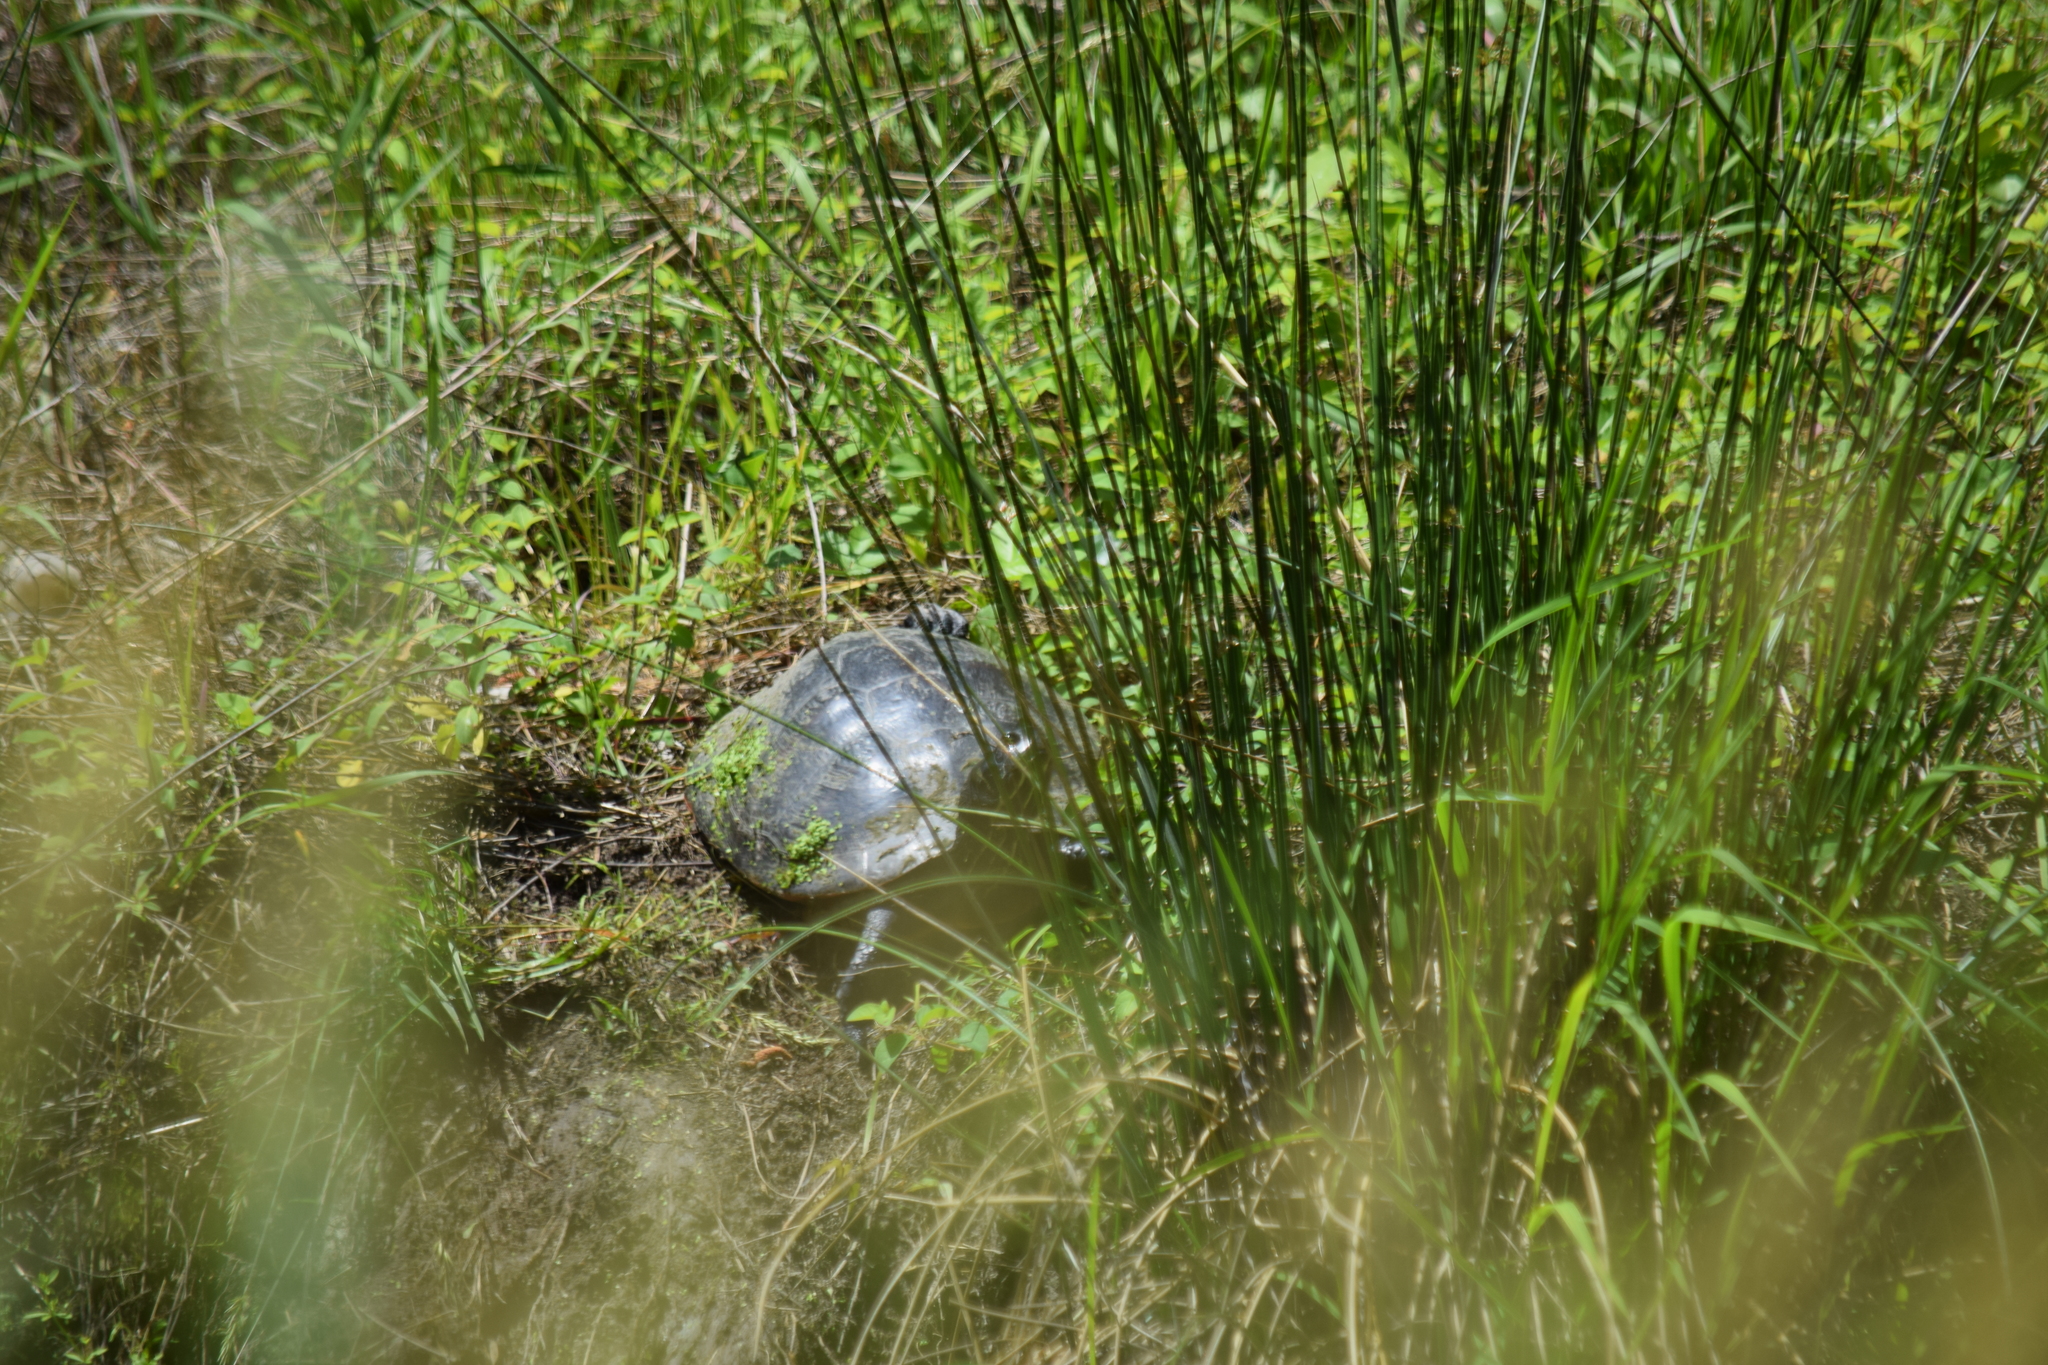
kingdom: Animalia
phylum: Chordata
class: Testudines
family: Emydidae
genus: Pseudemys
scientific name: Pseudemys rubriventris
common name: American red-bellied turtle
